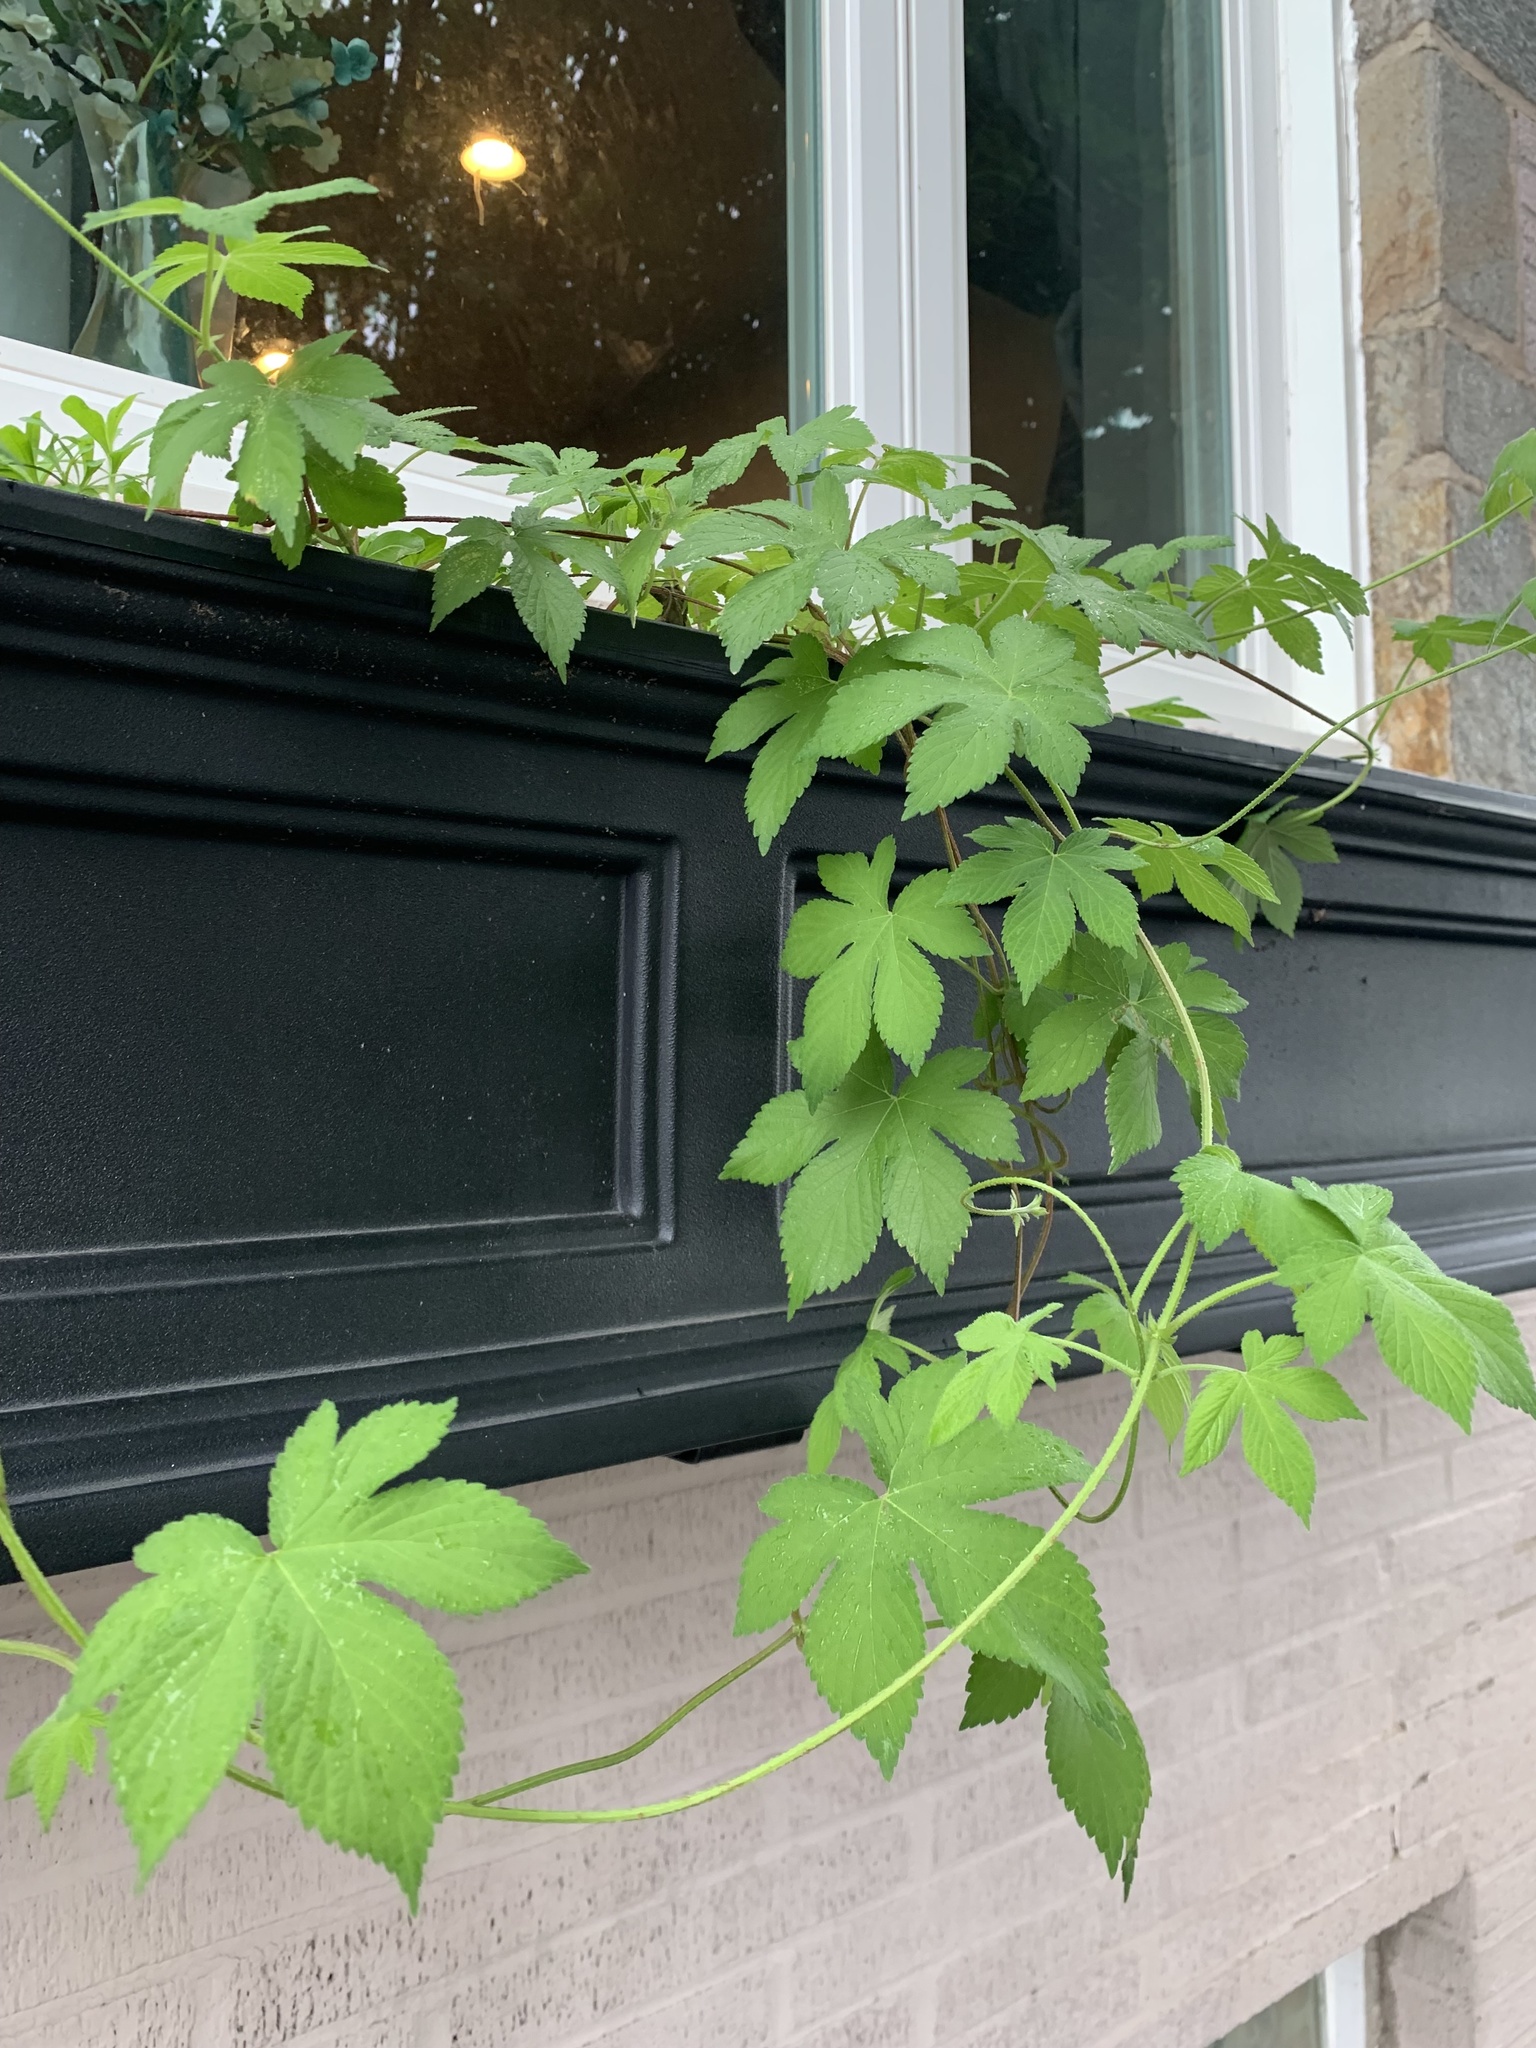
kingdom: Plantae
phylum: Tracheophyta
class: Magnoliopsida
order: Rosales
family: Cannabaceae
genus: Humulus
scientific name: Humulus scandens
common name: Japanese hop
